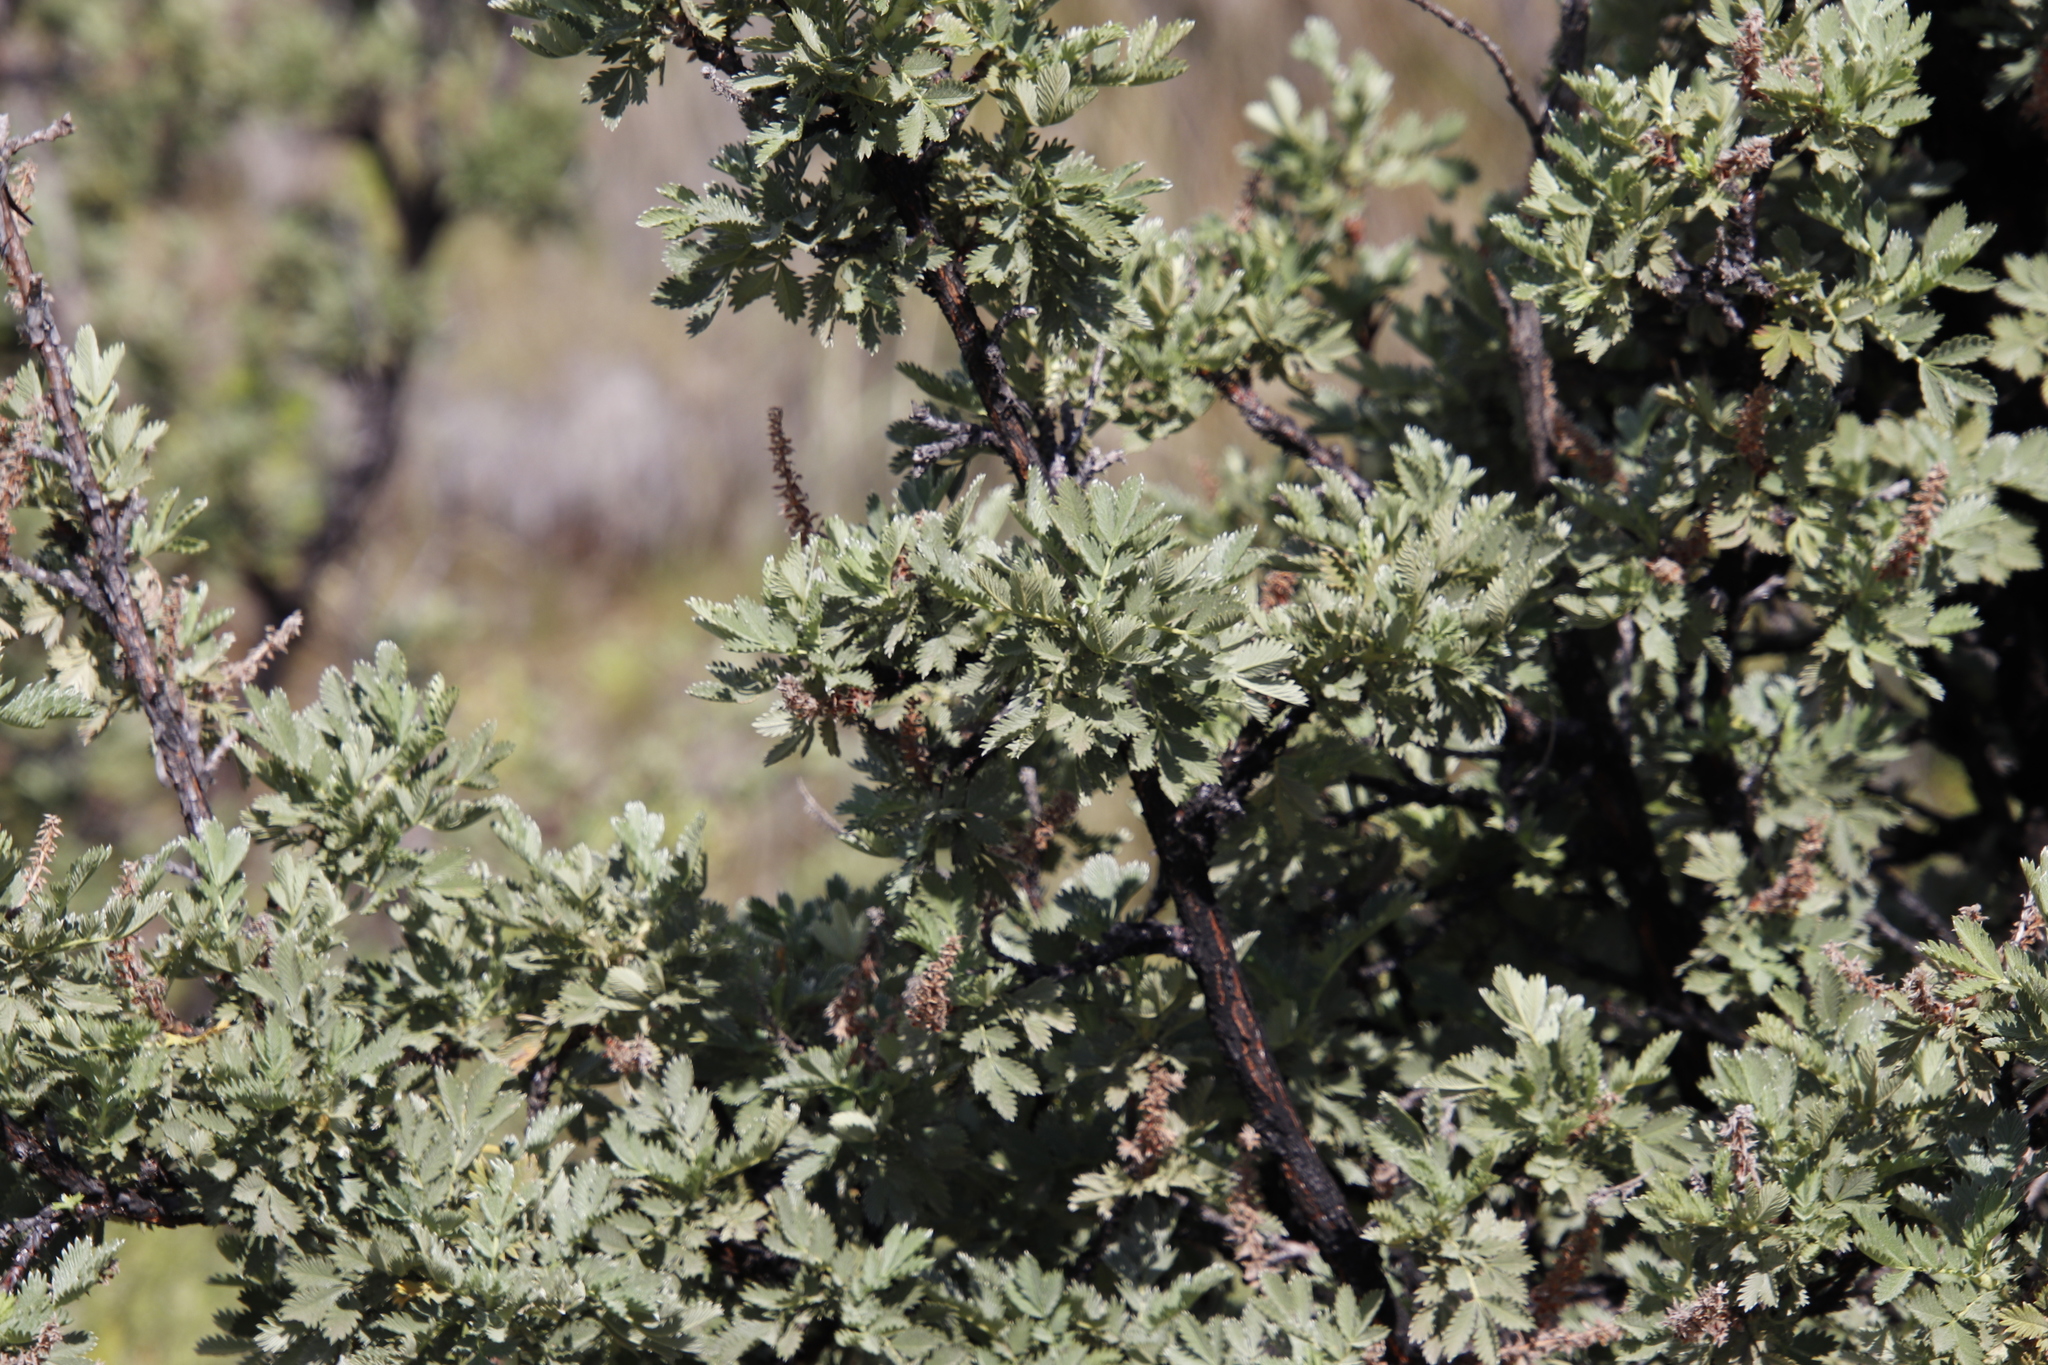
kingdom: Plantae
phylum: Tracheophyta
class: Magnoliopsida
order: Rosales
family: Rosaceae
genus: Leucosidea
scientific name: Leucosidea sericea
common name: Oldwood
